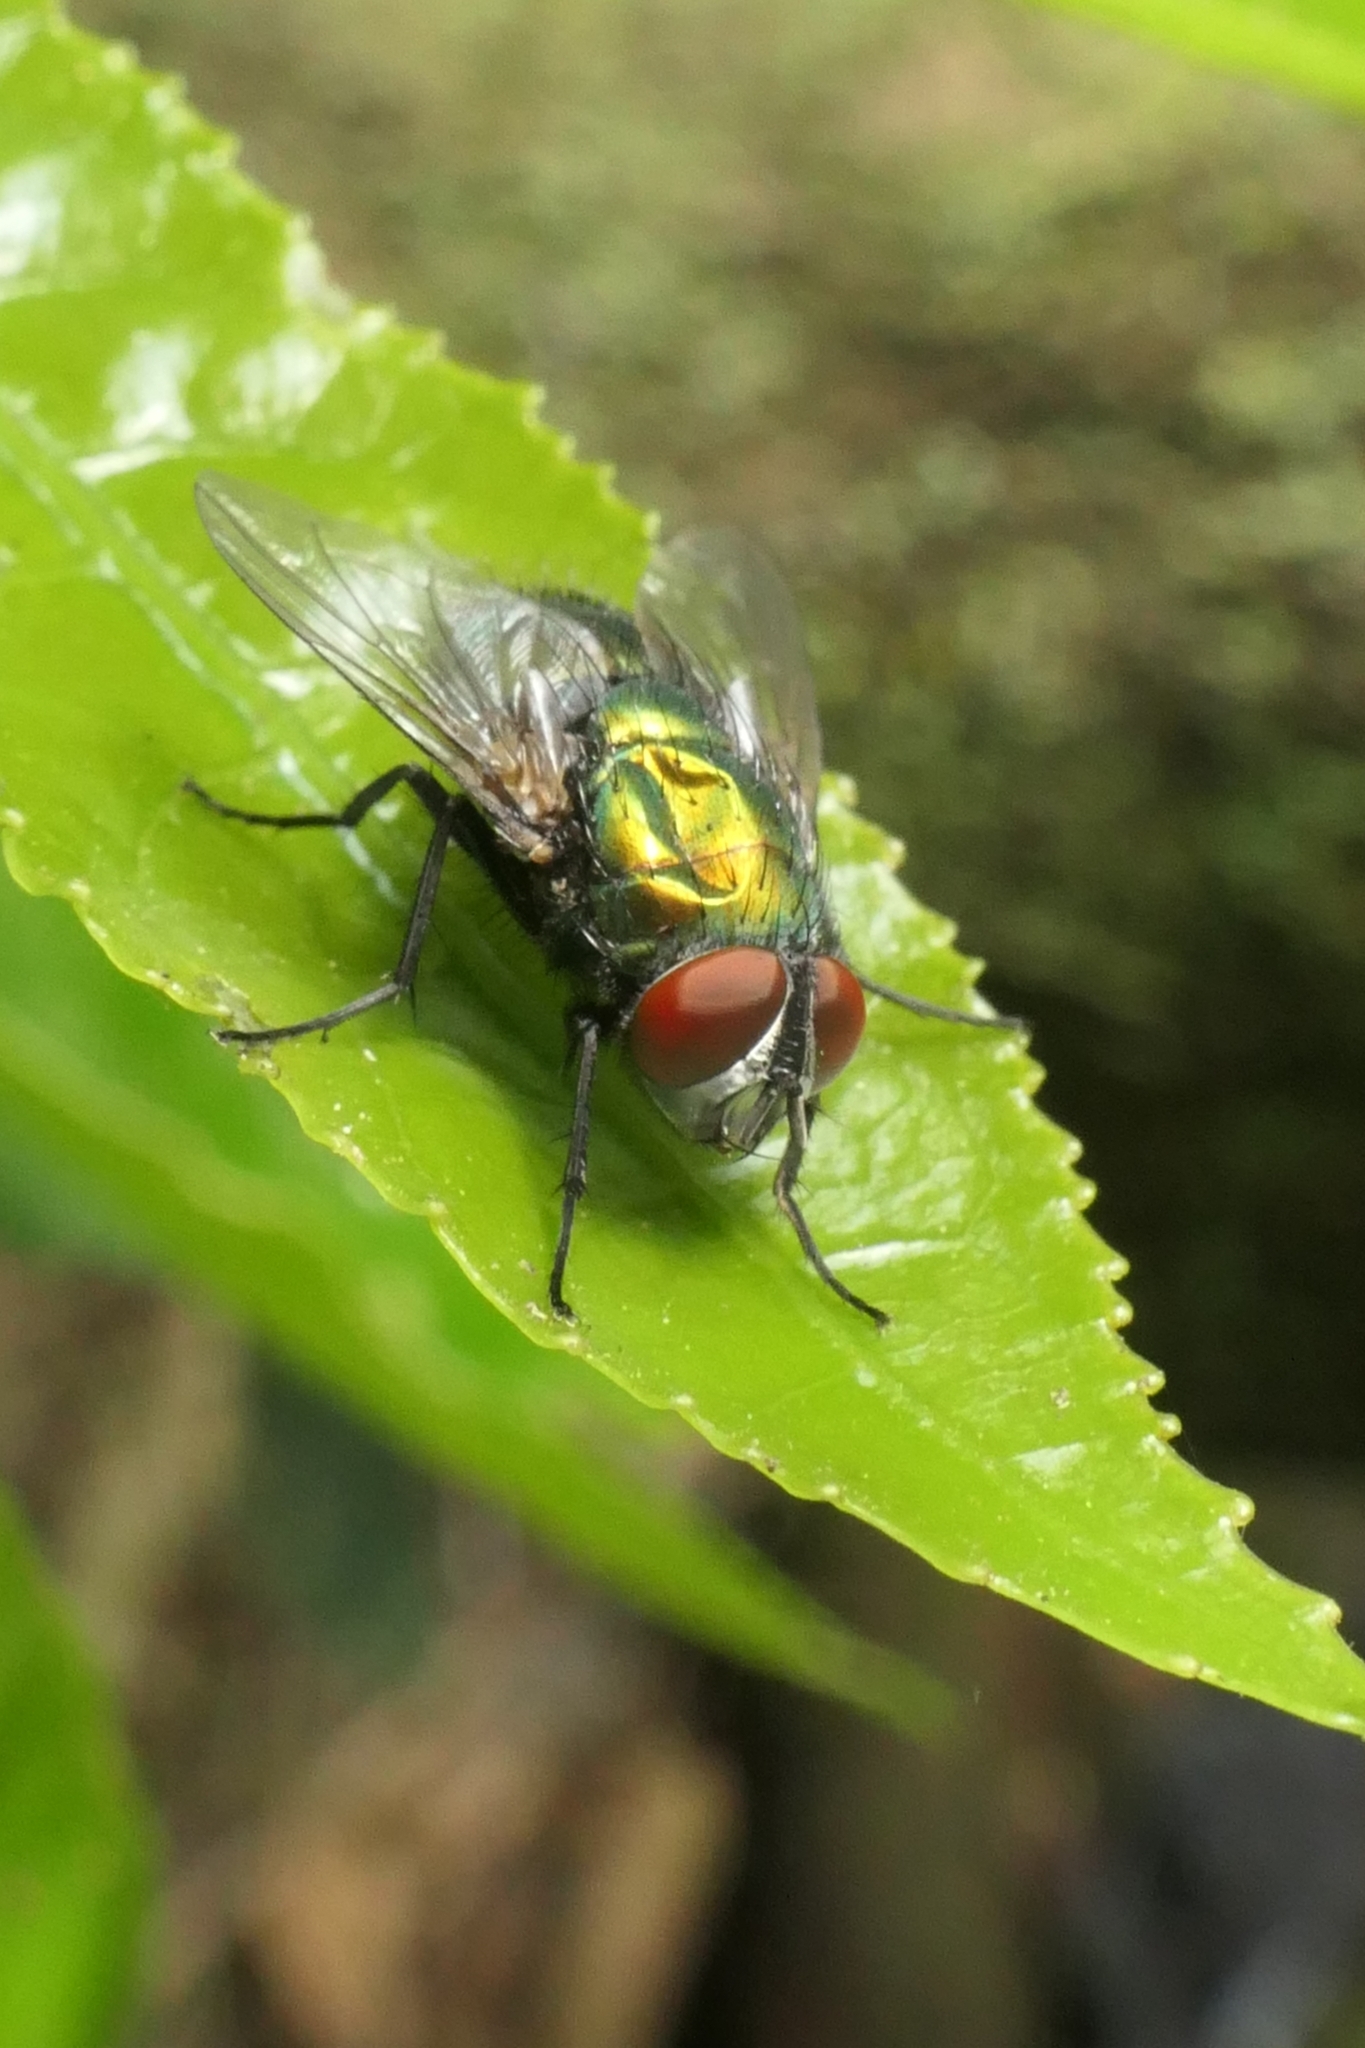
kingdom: Animalia
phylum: Arthropoda
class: Insecta
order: Diptera
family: Calliphoridae
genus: Lucilia
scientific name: Lucilia sericata
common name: Blow fly
